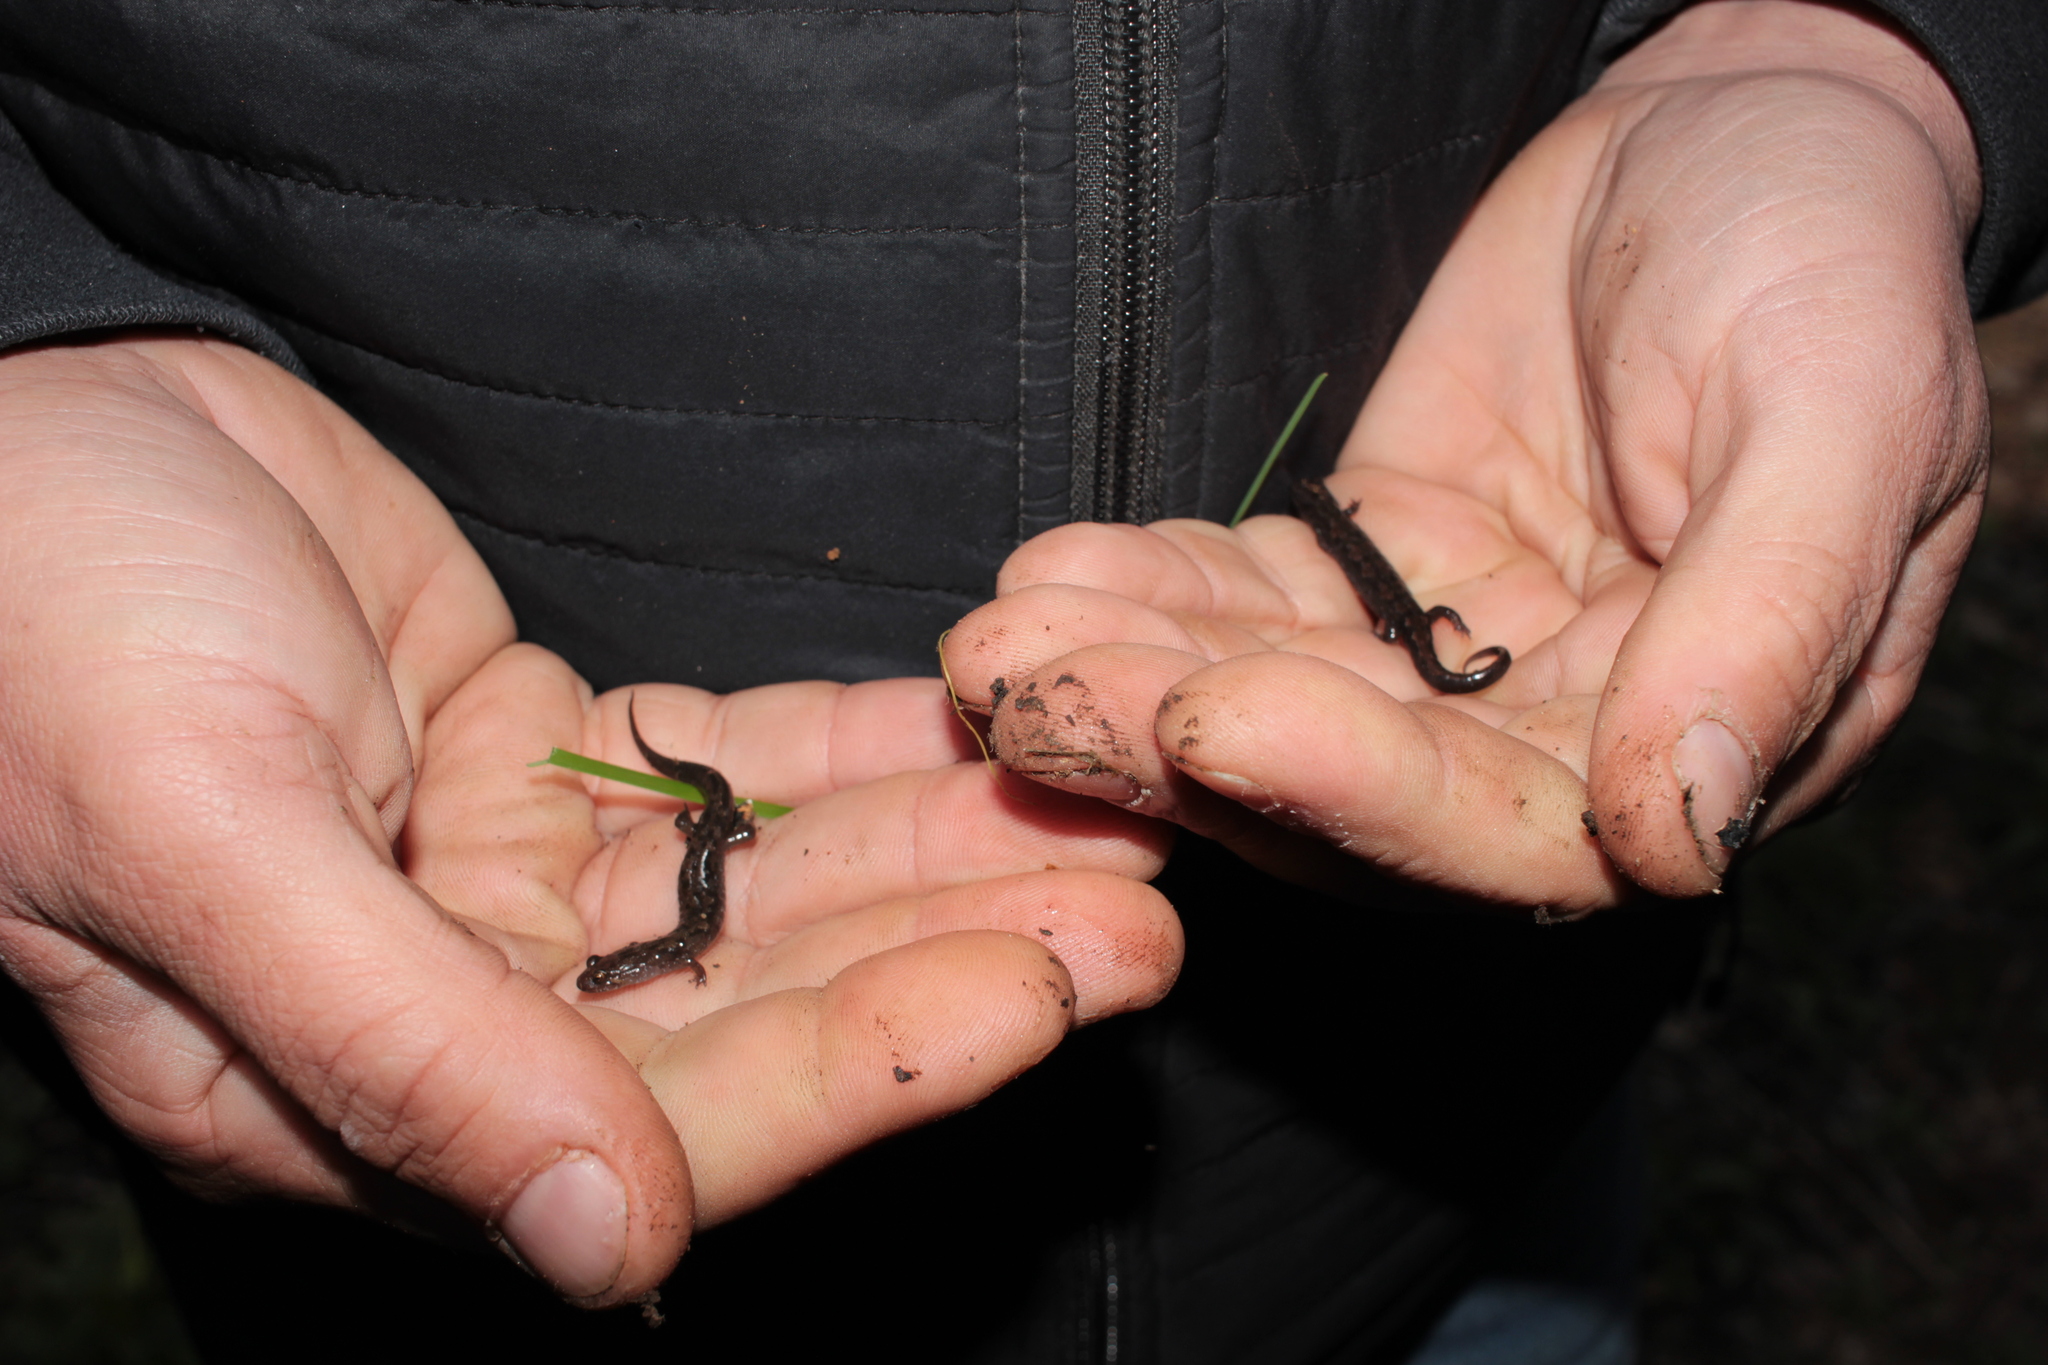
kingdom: Animalia
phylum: Chordata
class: Amphibia
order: Caudata
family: Plethodontidae
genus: Desmognathus
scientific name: Desmognathus balsameus
